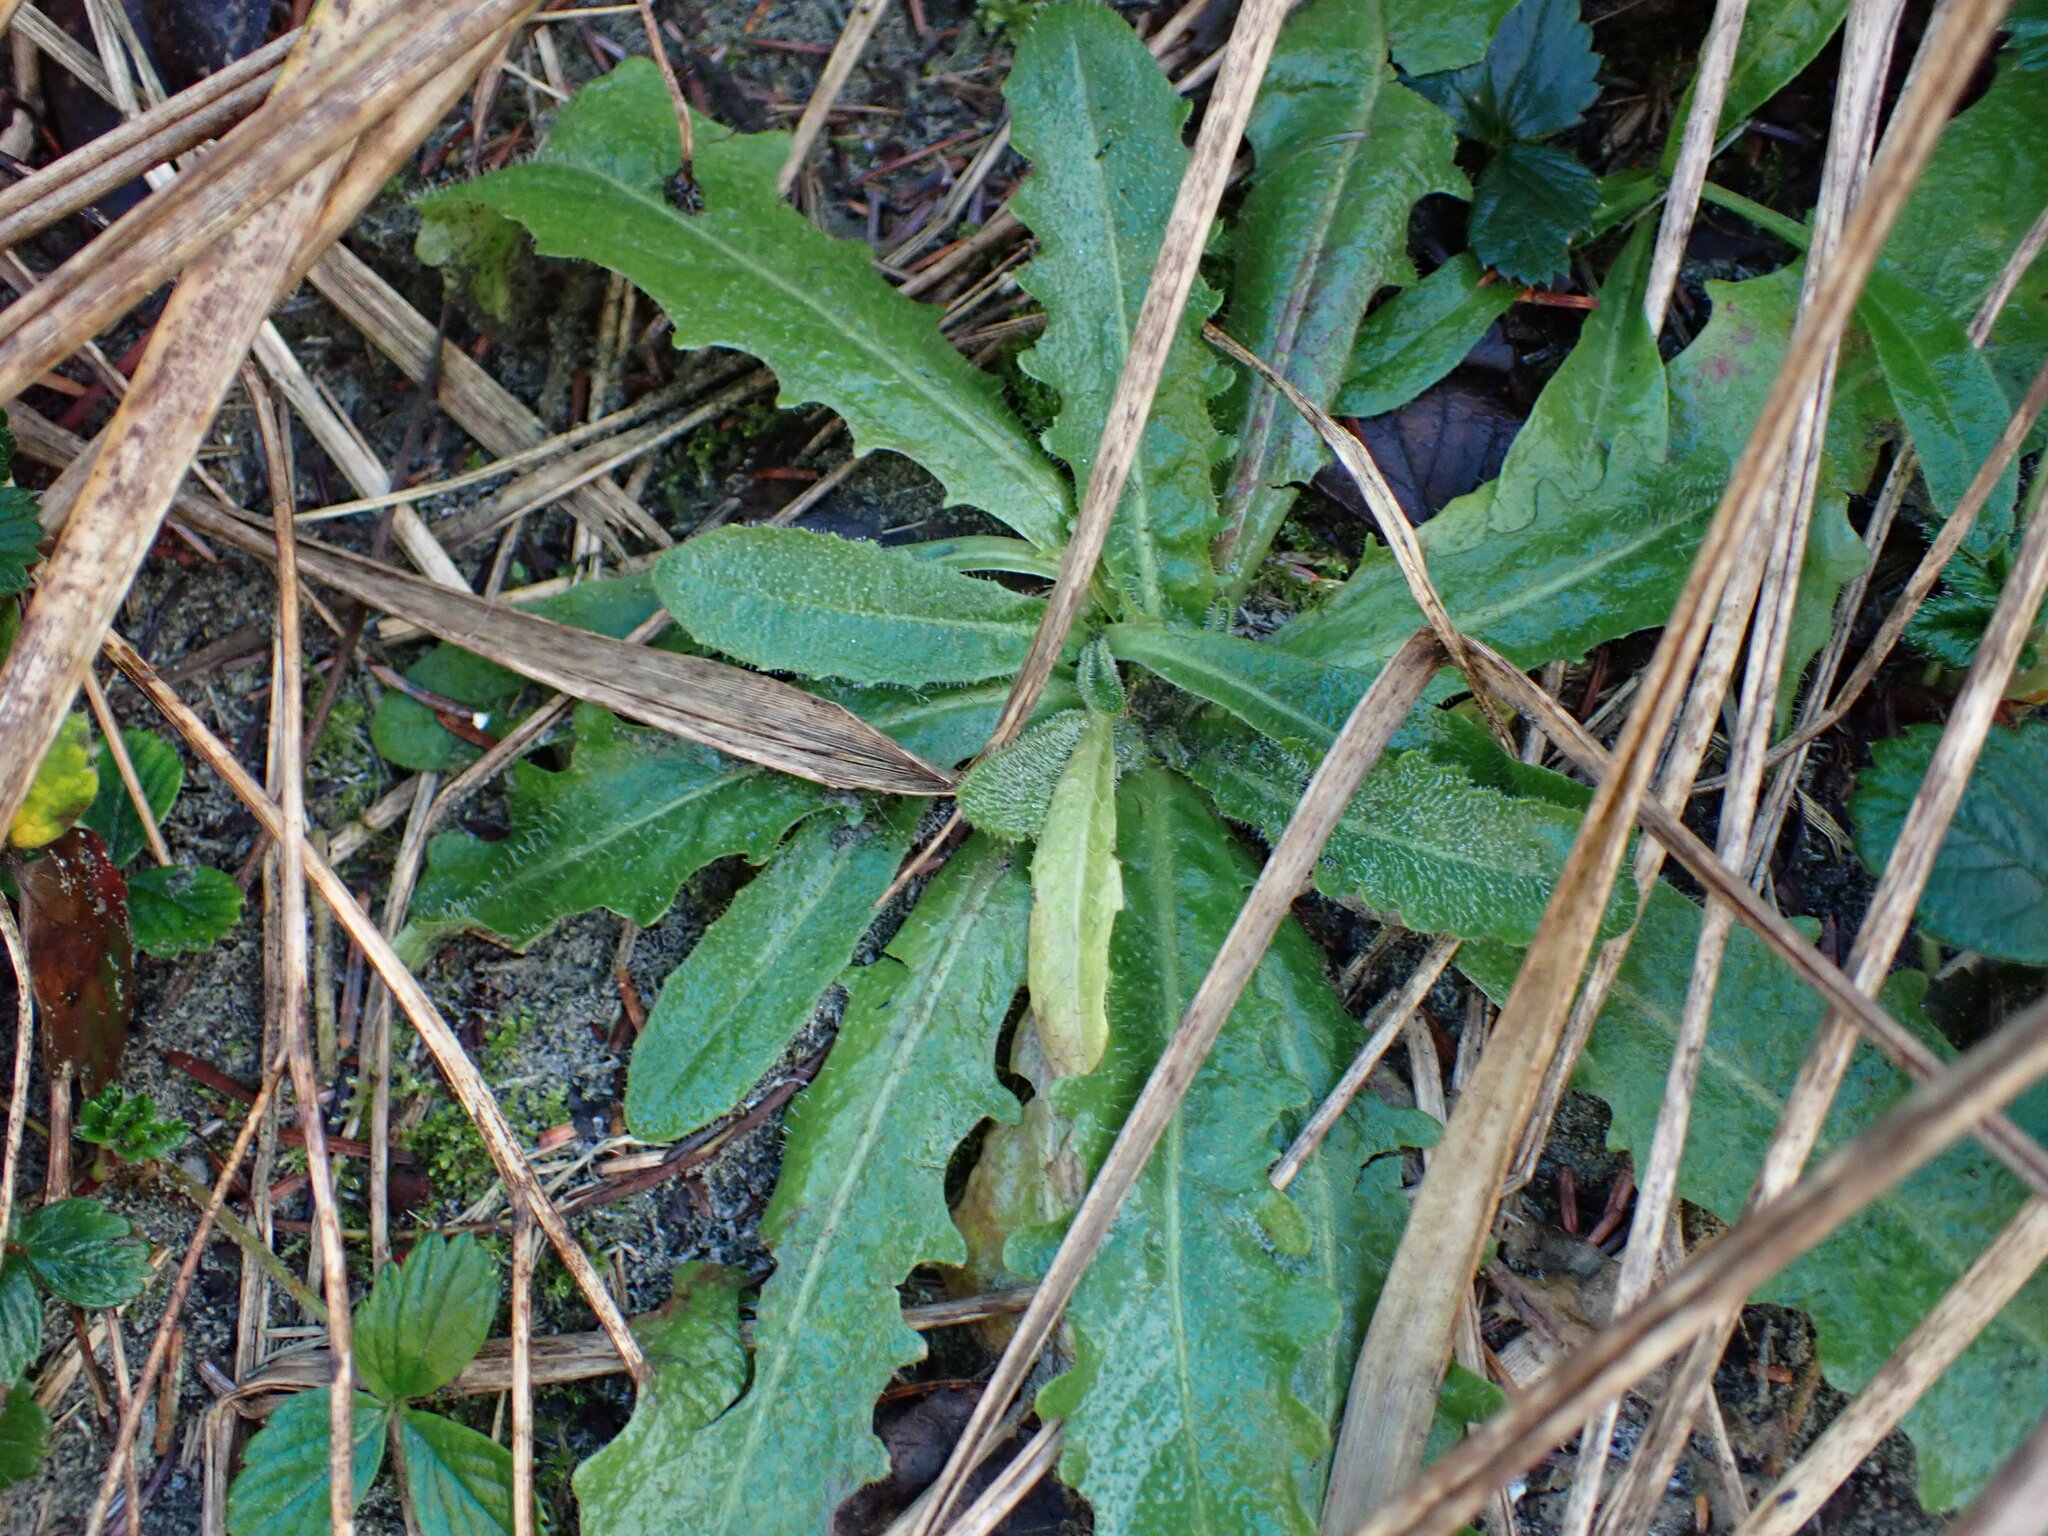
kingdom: Plantae
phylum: Tracheophyta
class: Magnoliopsida
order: Asterales
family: Asteraceae
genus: Hypochaeris
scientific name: Hypochaeris radicata
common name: Flatweed
